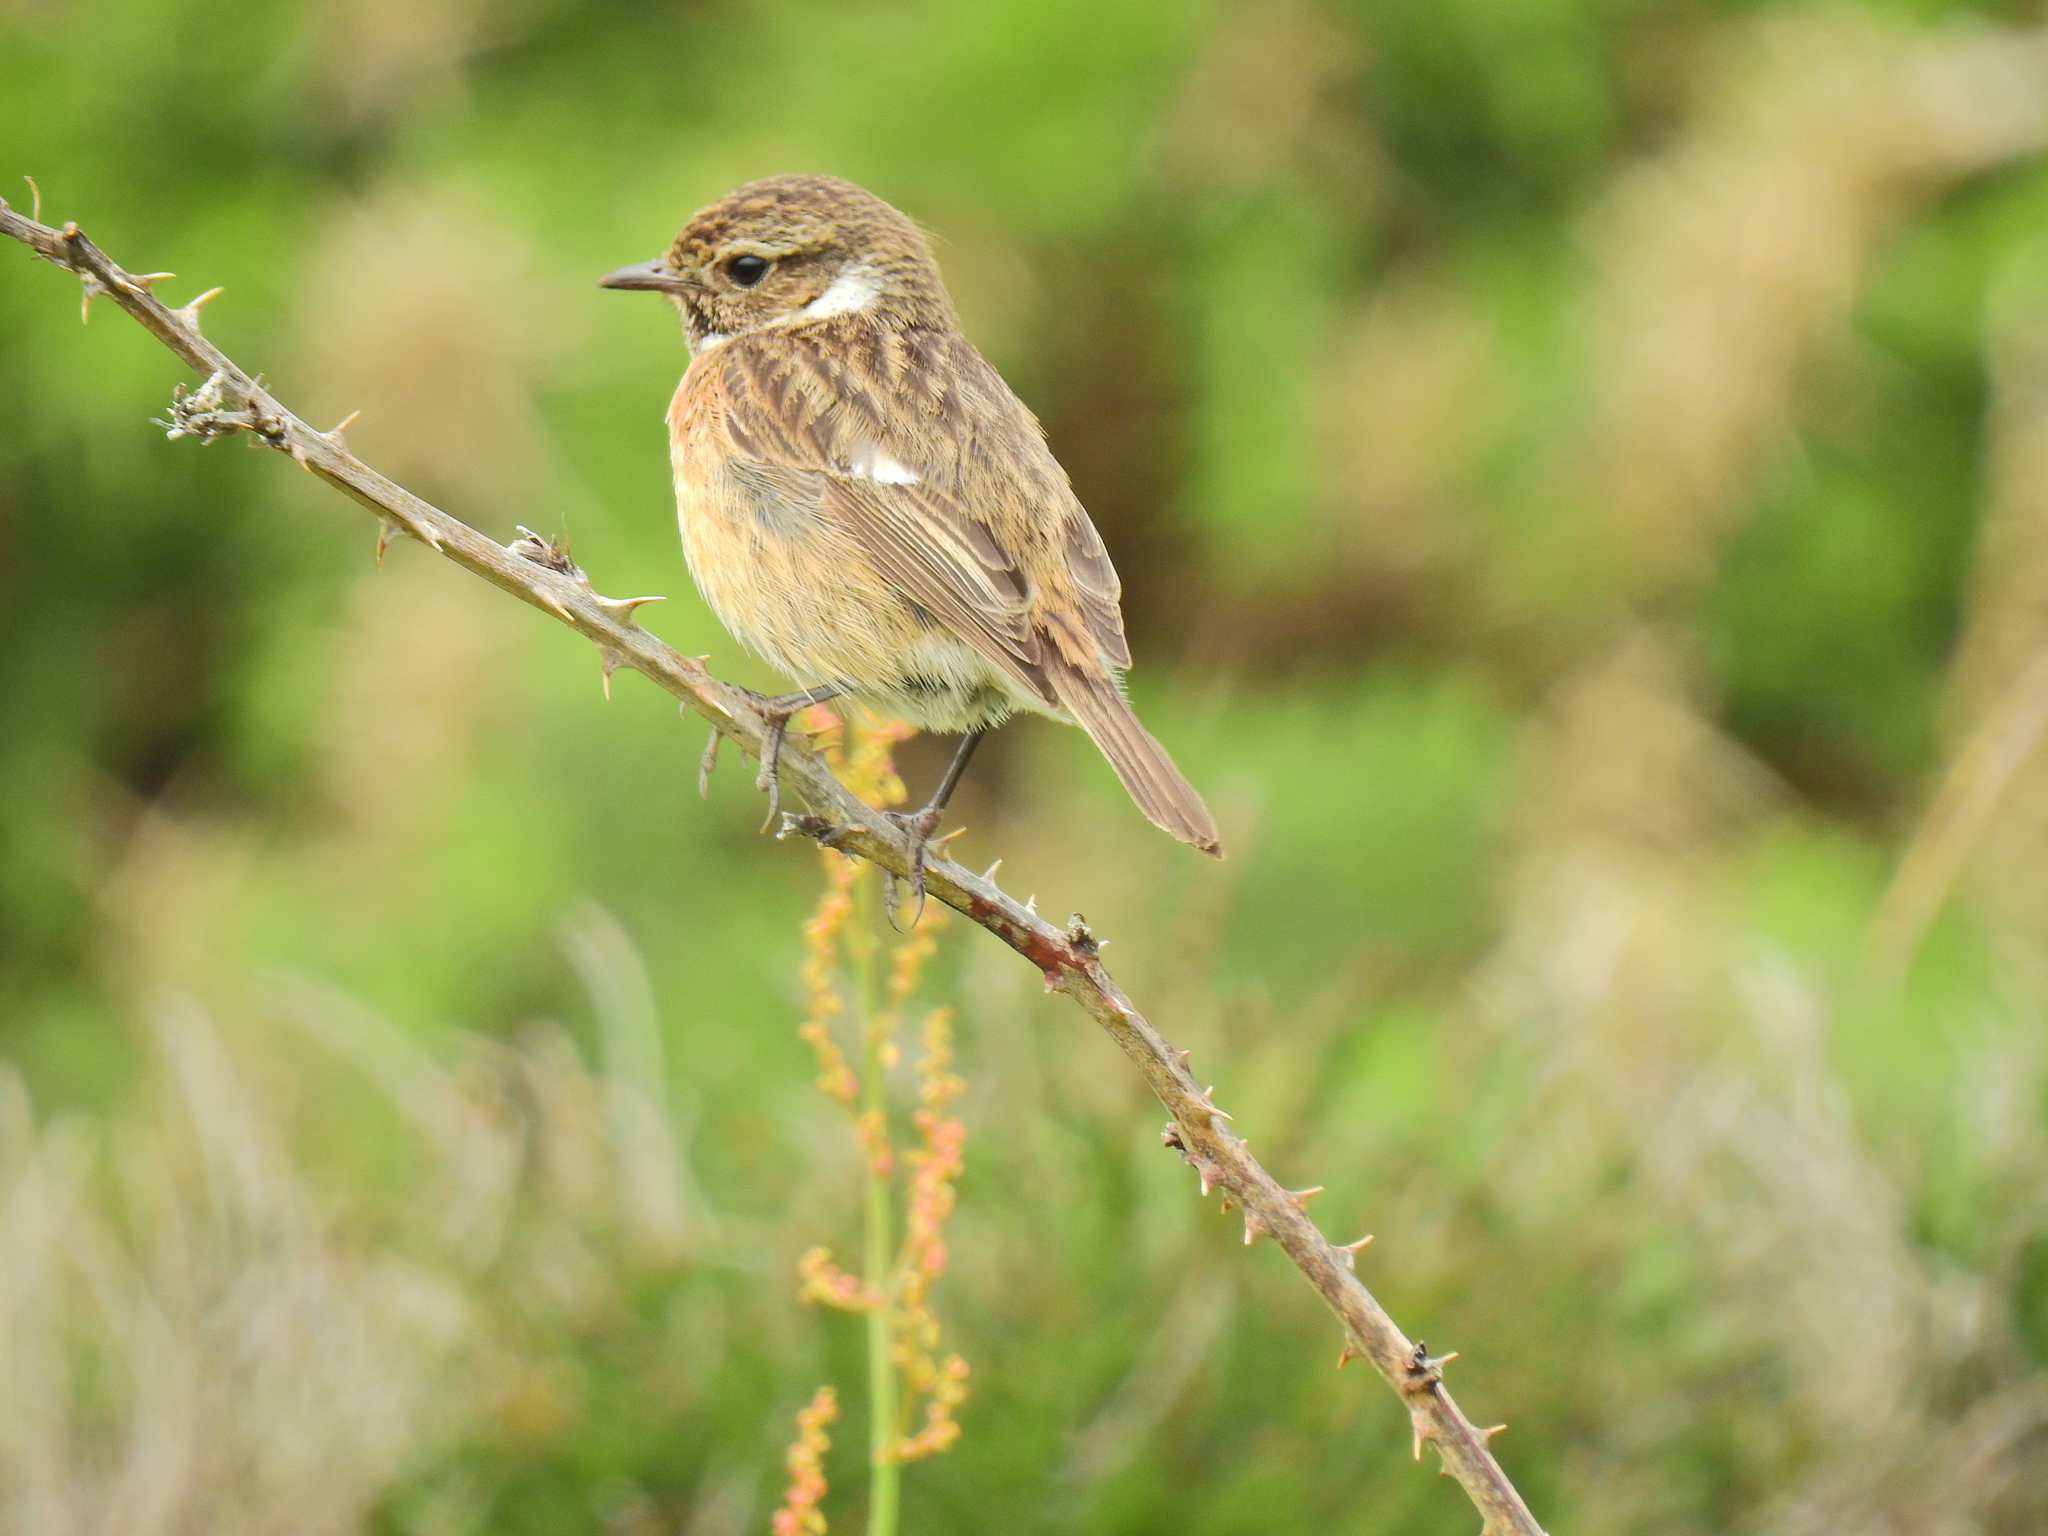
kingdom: Animalia
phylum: Chordata
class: Aves
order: Passeriformes
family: Muscicapidae
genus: Saxicola
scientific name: Saxicola rubicola
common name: European stonechat
